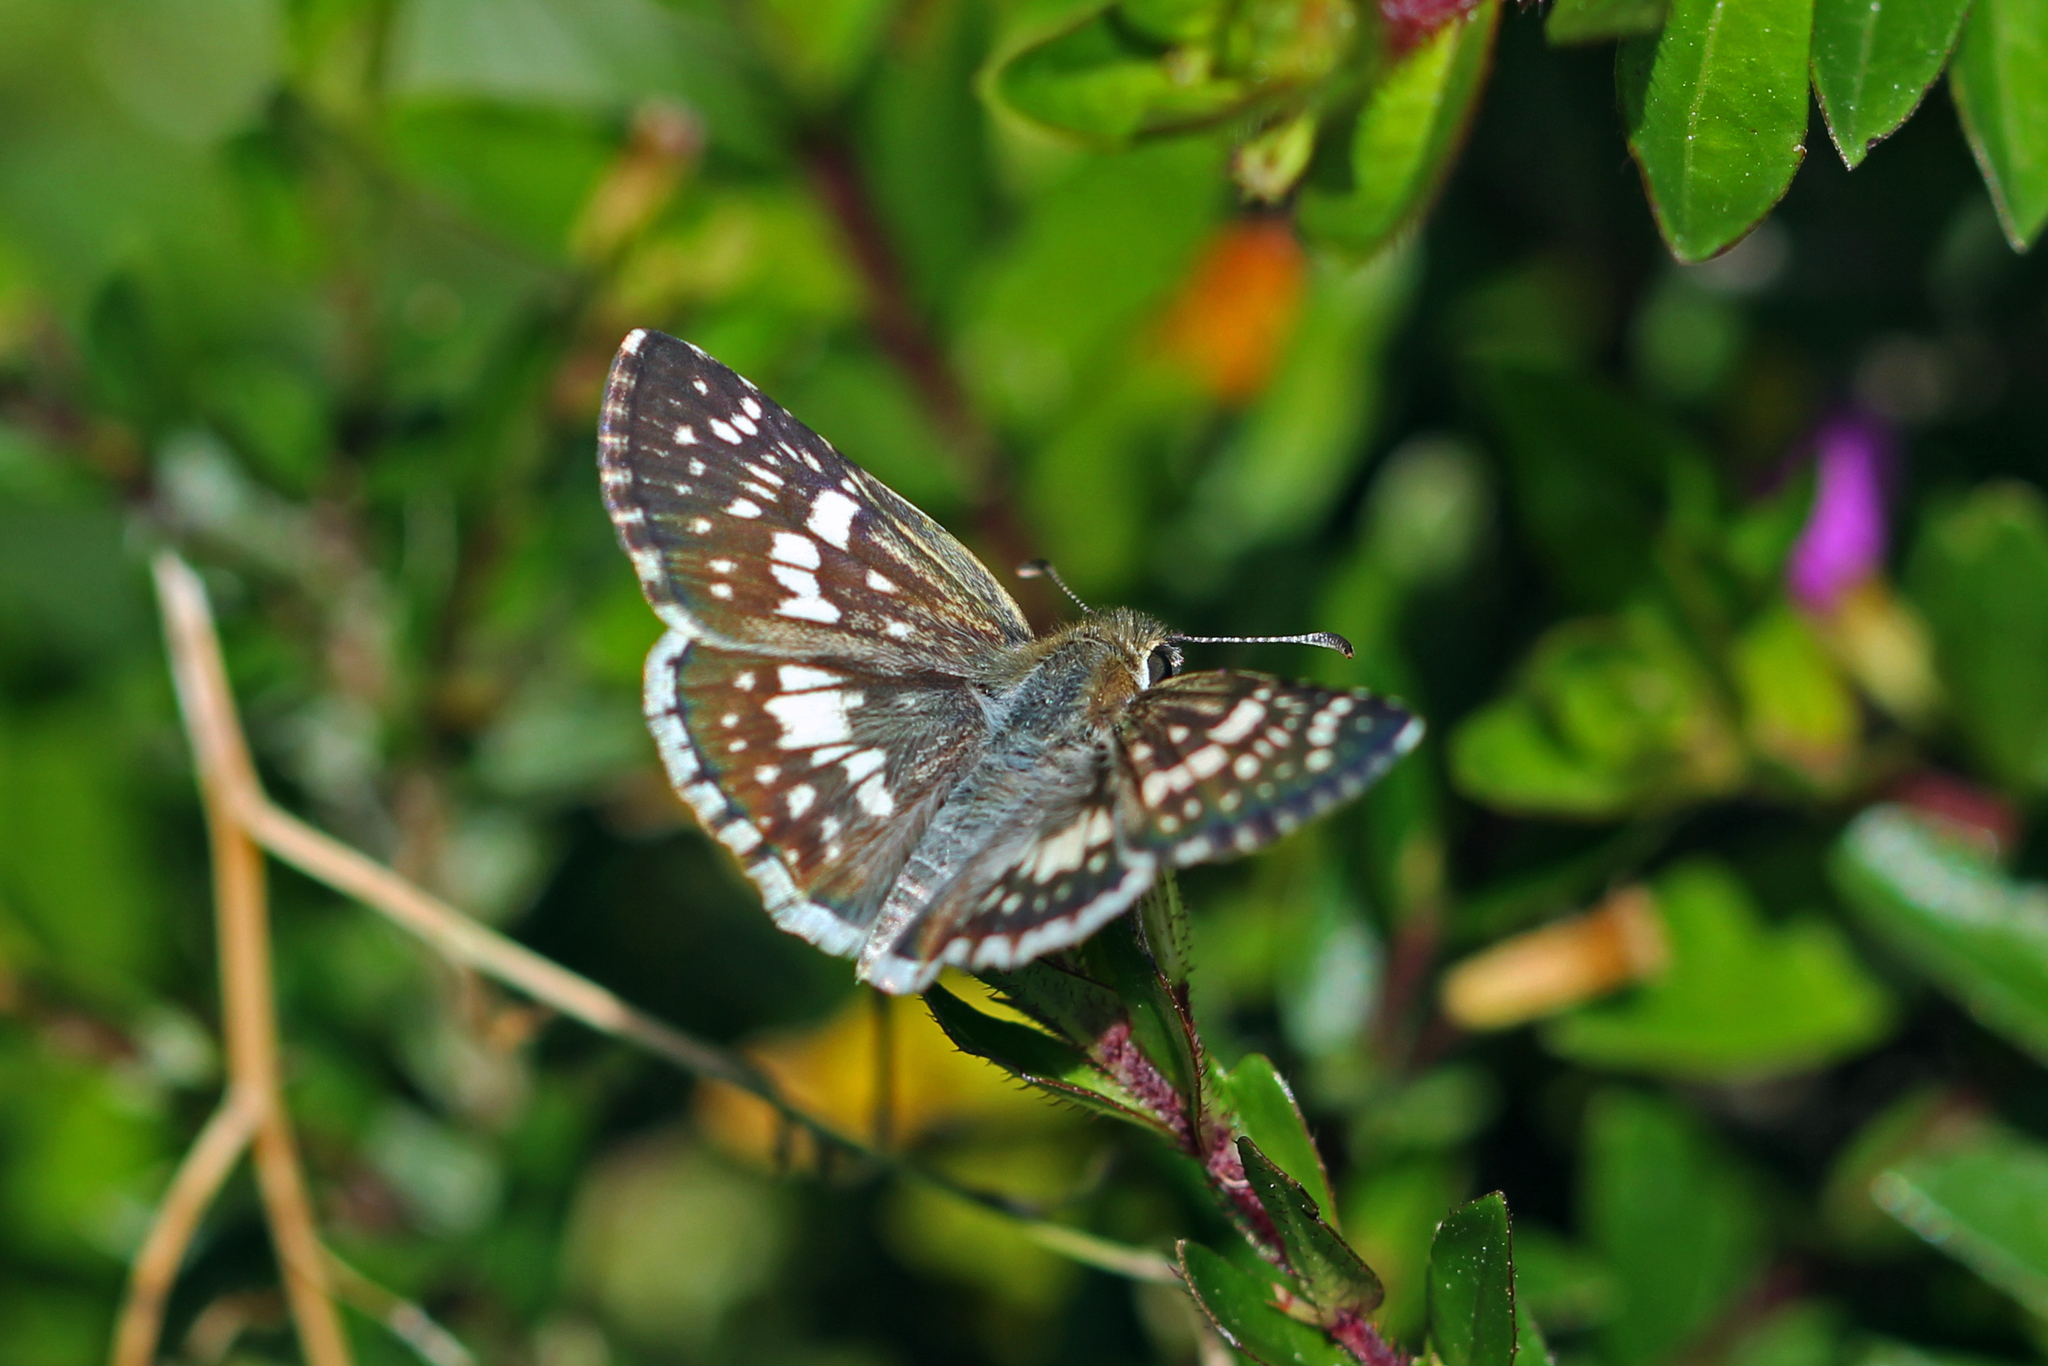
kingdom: Animalia
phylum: Arthropoda
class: Insecta
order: Lepidoptera
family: Hesperiidae
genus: Burnsius
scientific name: Burnsius adepta
